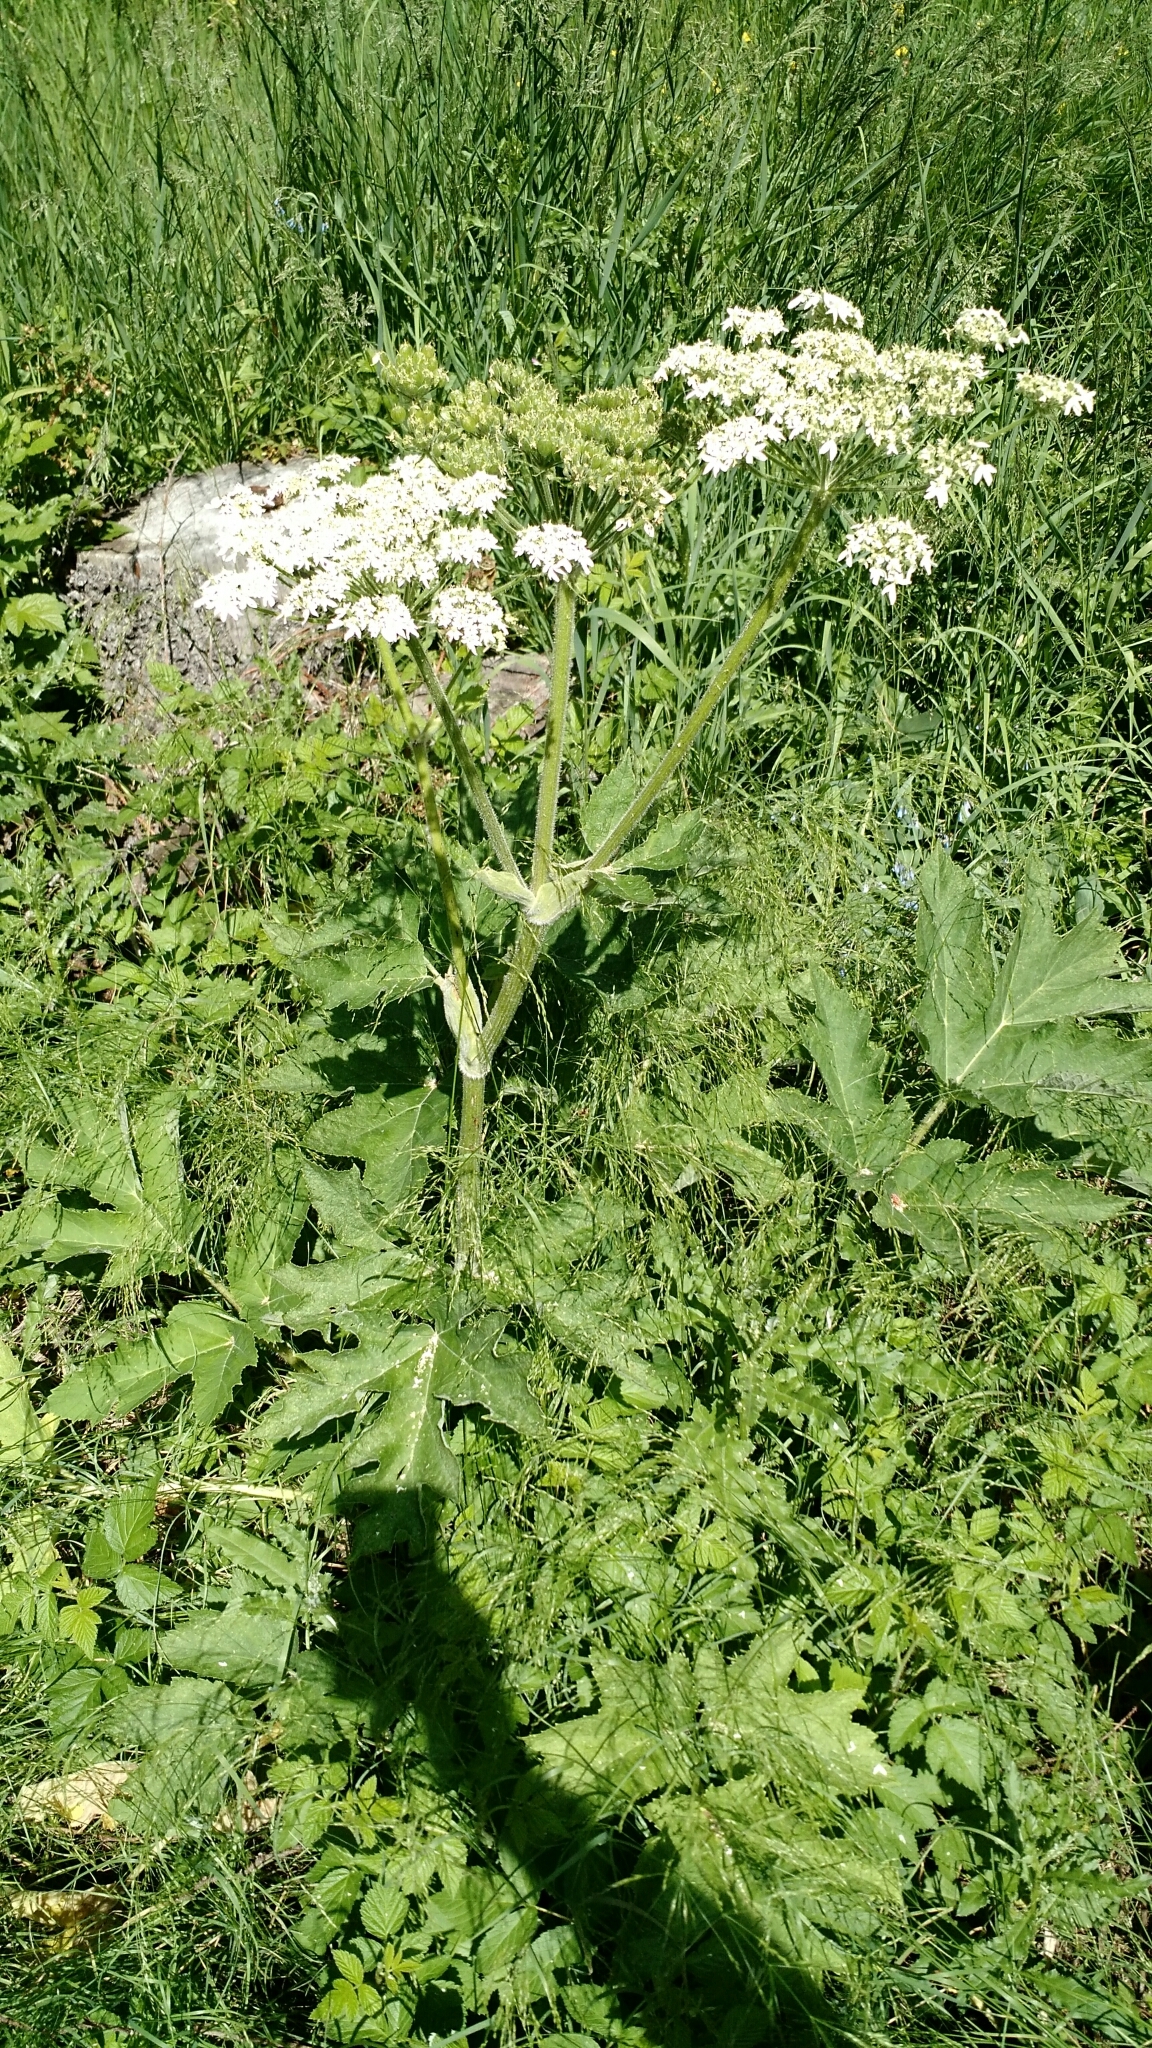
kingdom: Plantae
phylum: Tracheophyta
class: Magnoliopsida
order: Apiales
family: Apiaceae
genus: Heracleum
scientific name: Heracleum maximum
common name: American cow parsnip
